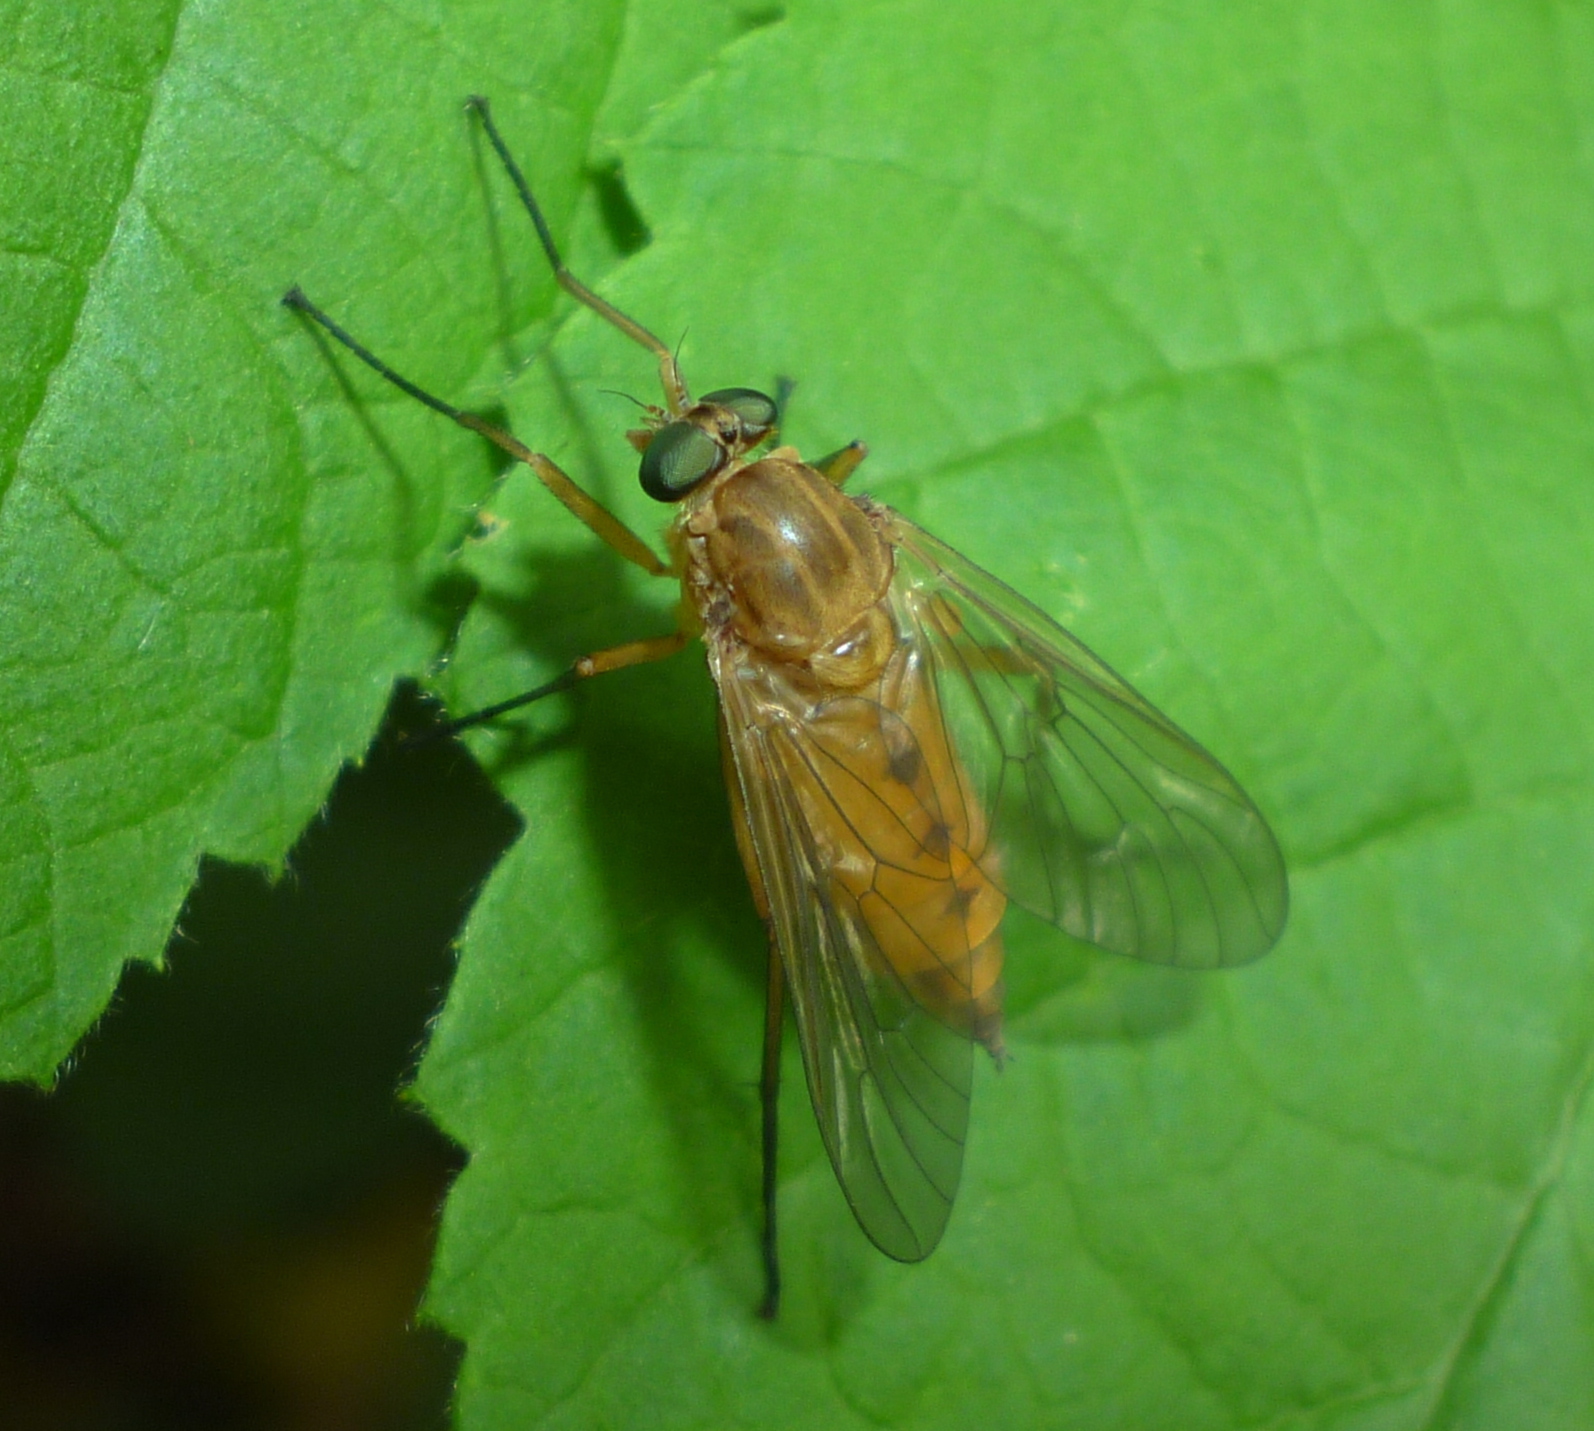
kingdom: Animalia
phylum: Arthropoda
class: Insecta
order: Diptera
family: Rhagionidae
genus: Rhagio
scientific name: Rhagio tringaria
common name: Marsh snipefly
